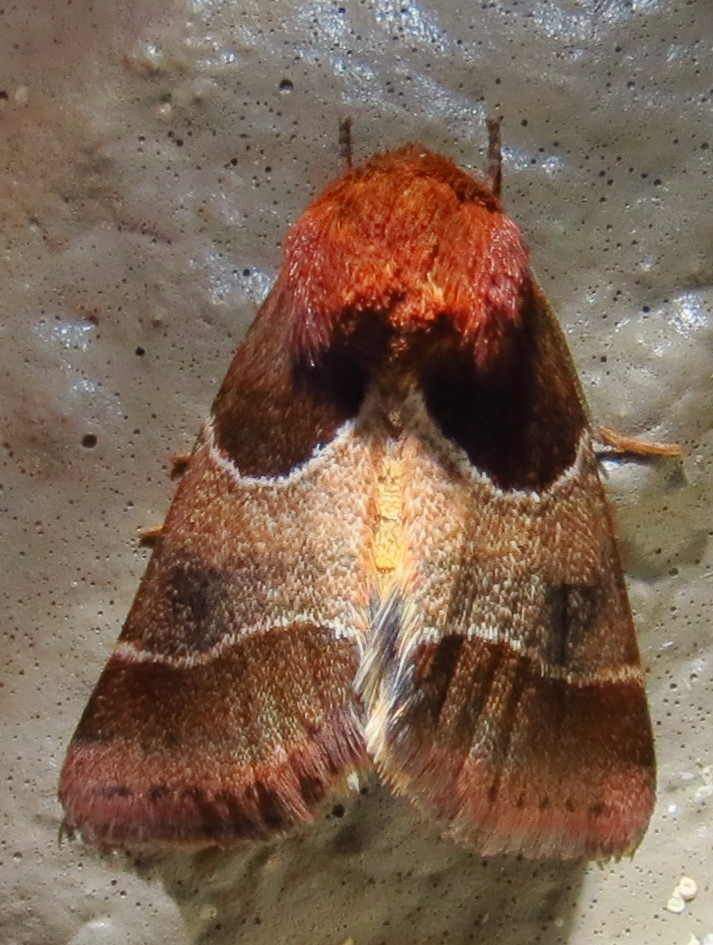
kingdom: Animalia
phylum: Arthropoda
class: Insecta
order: Lepidoptera
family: Noctuidae
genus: Schinia
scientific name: Schinia arcigera
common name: Arcigera flower moth
